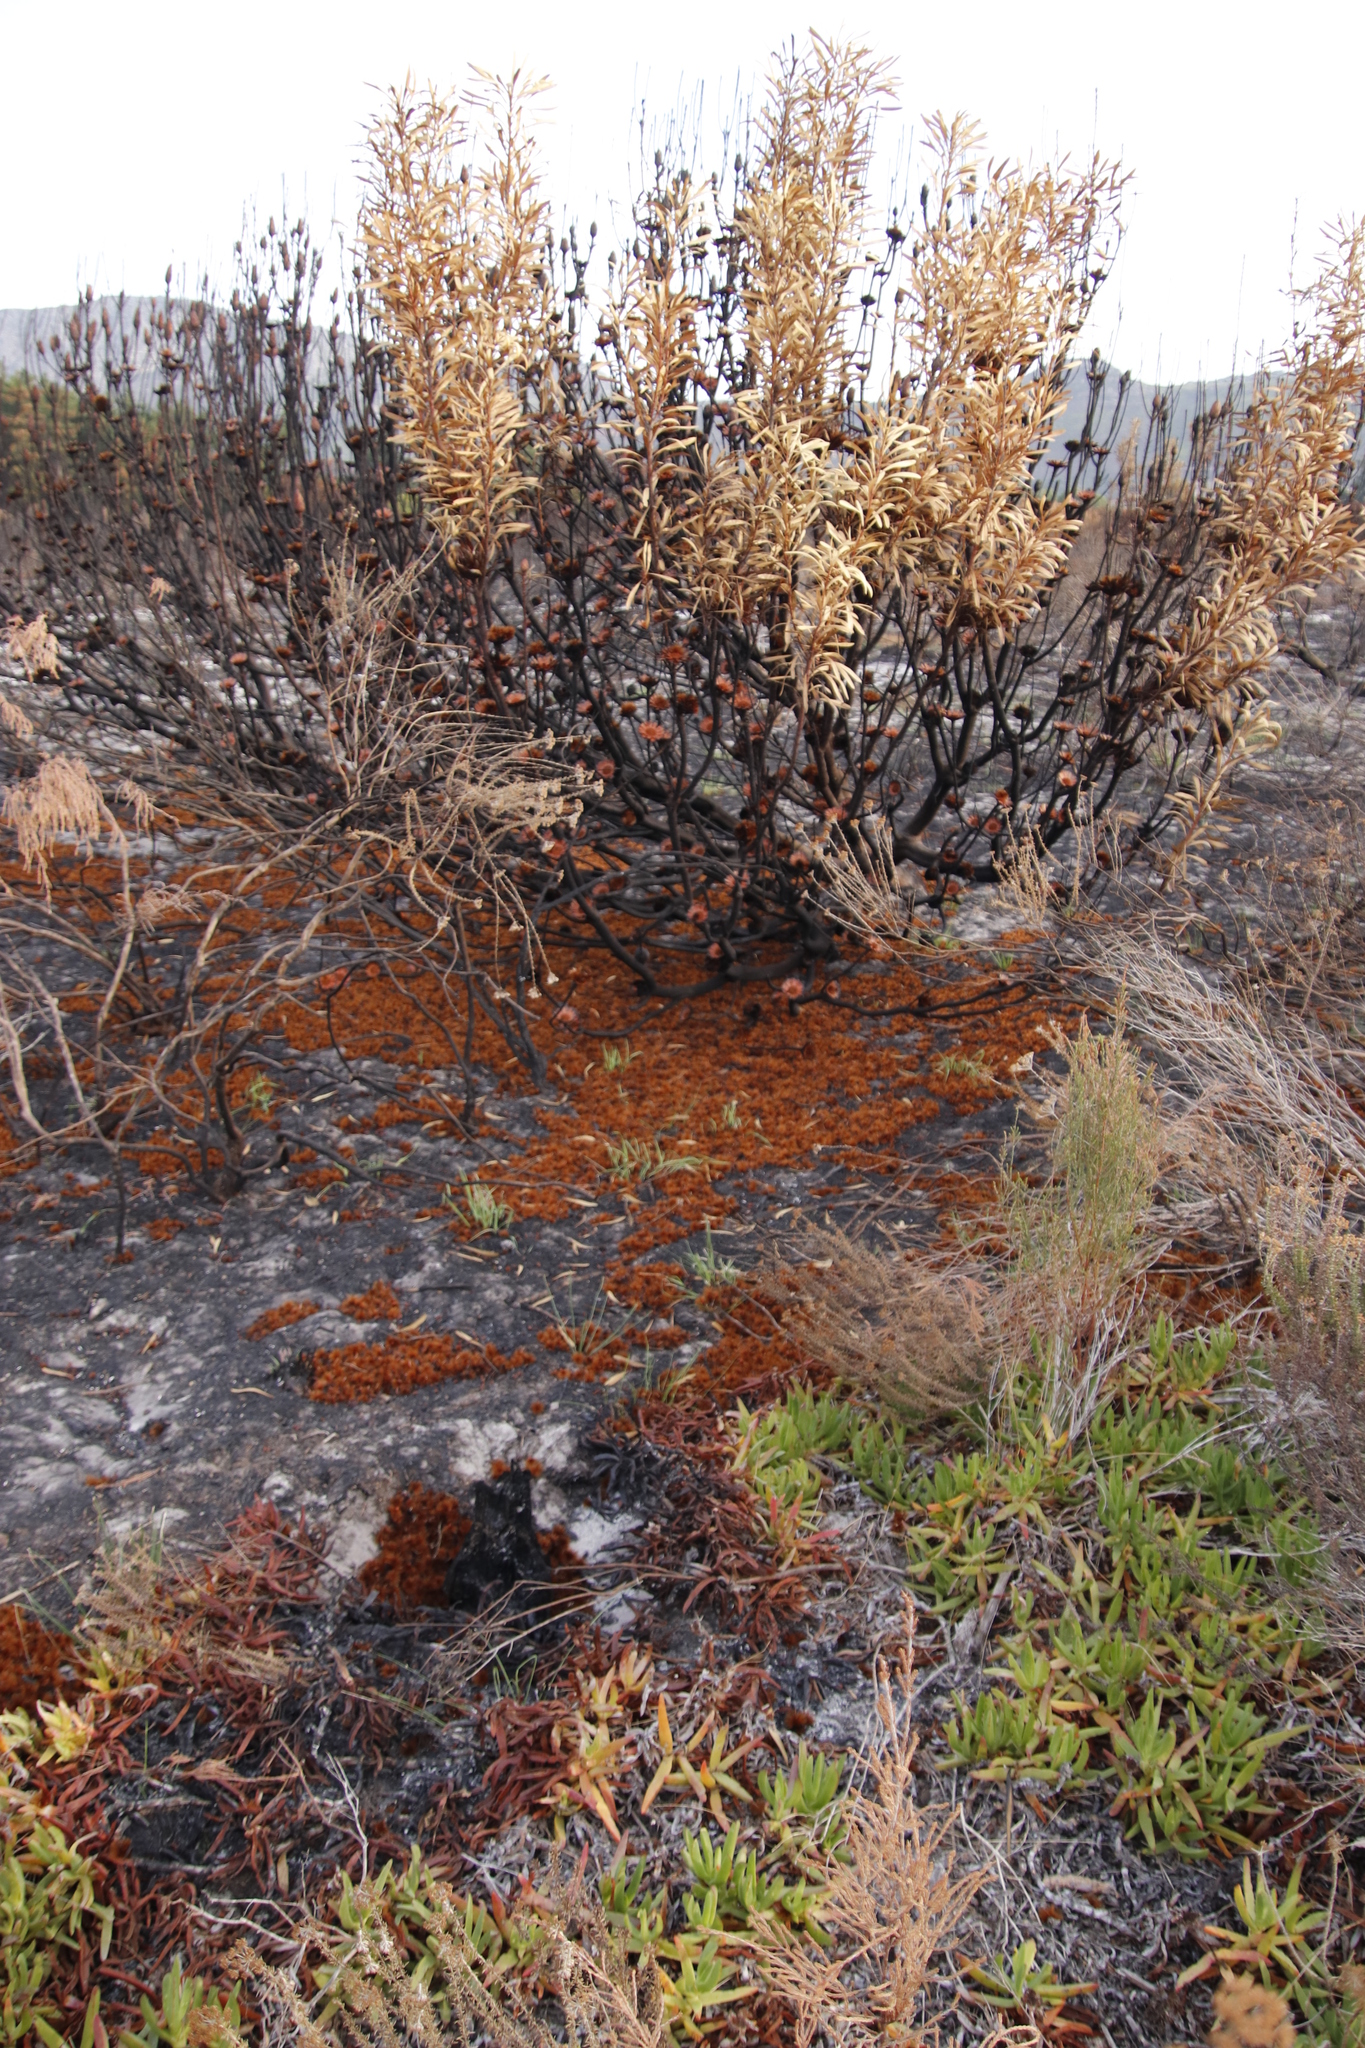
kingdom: Plantae
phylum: Tracheophyta
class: Magnoliopsida
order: Proteales
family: Proteaceae
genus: Protea
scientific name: Protea repens
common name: Sugarbush
